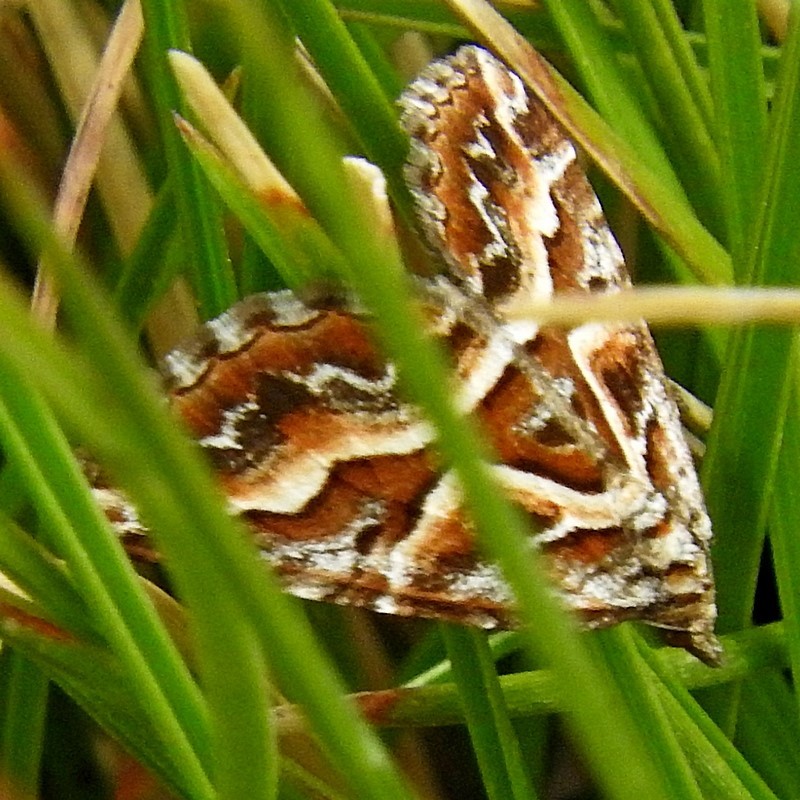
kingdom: Animalia
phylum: Arthropoda
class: Insecta
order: Lepidoptera
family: Geometridae
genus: Melitulias
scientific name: Melitulias graphicata
